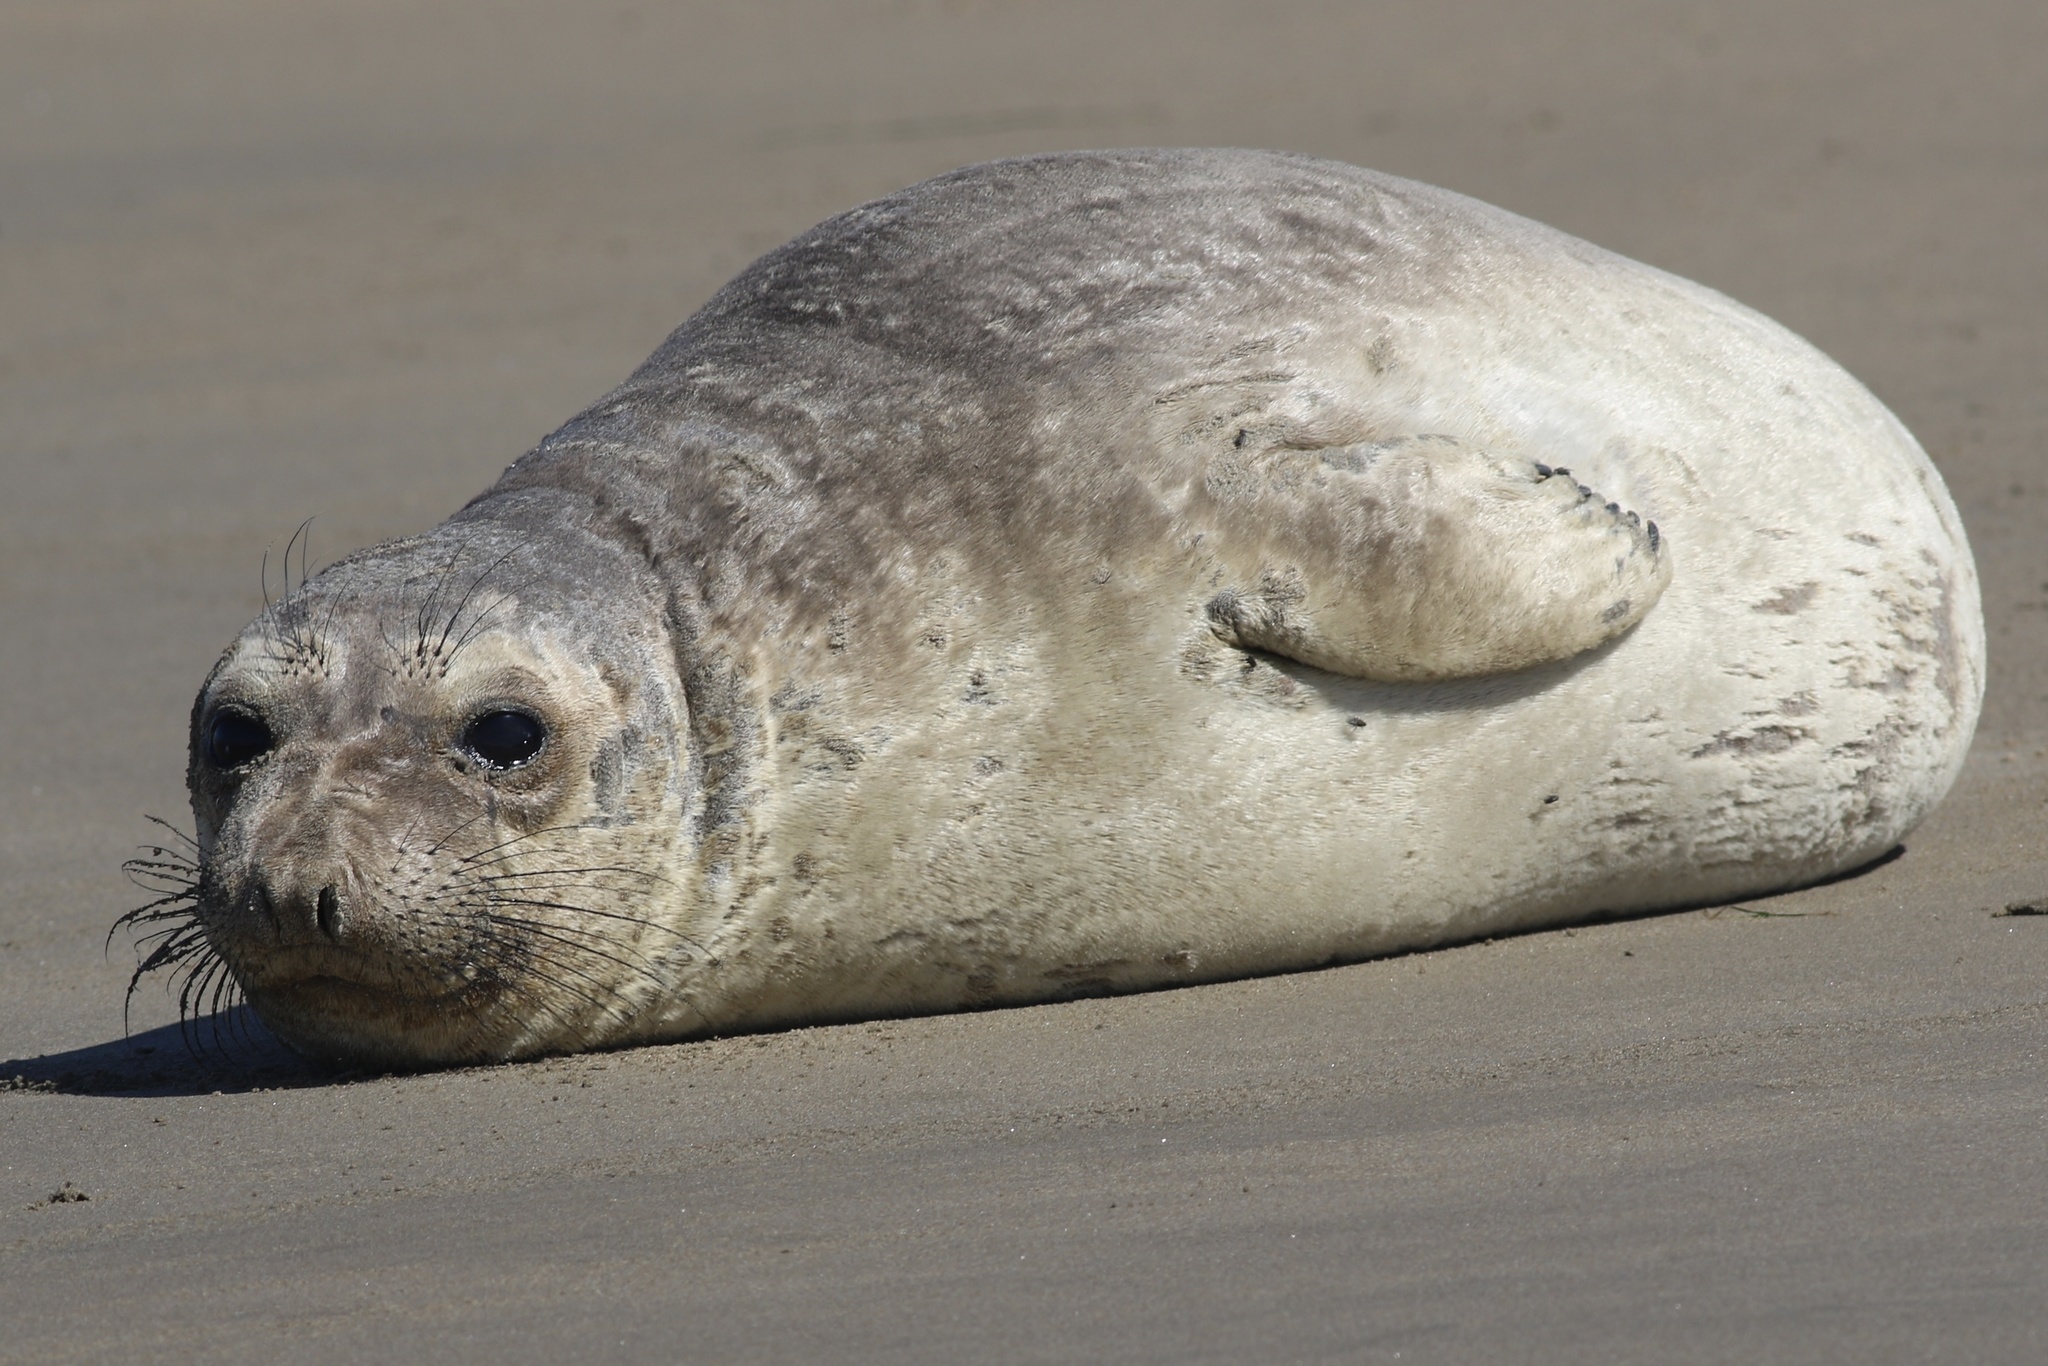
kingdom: Animalia
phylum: Chordata
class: Mammalia
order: Carnivora
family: Phocidae
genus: Mirounga
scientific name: Mirounga angustirostris
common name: Northern elephant seal
